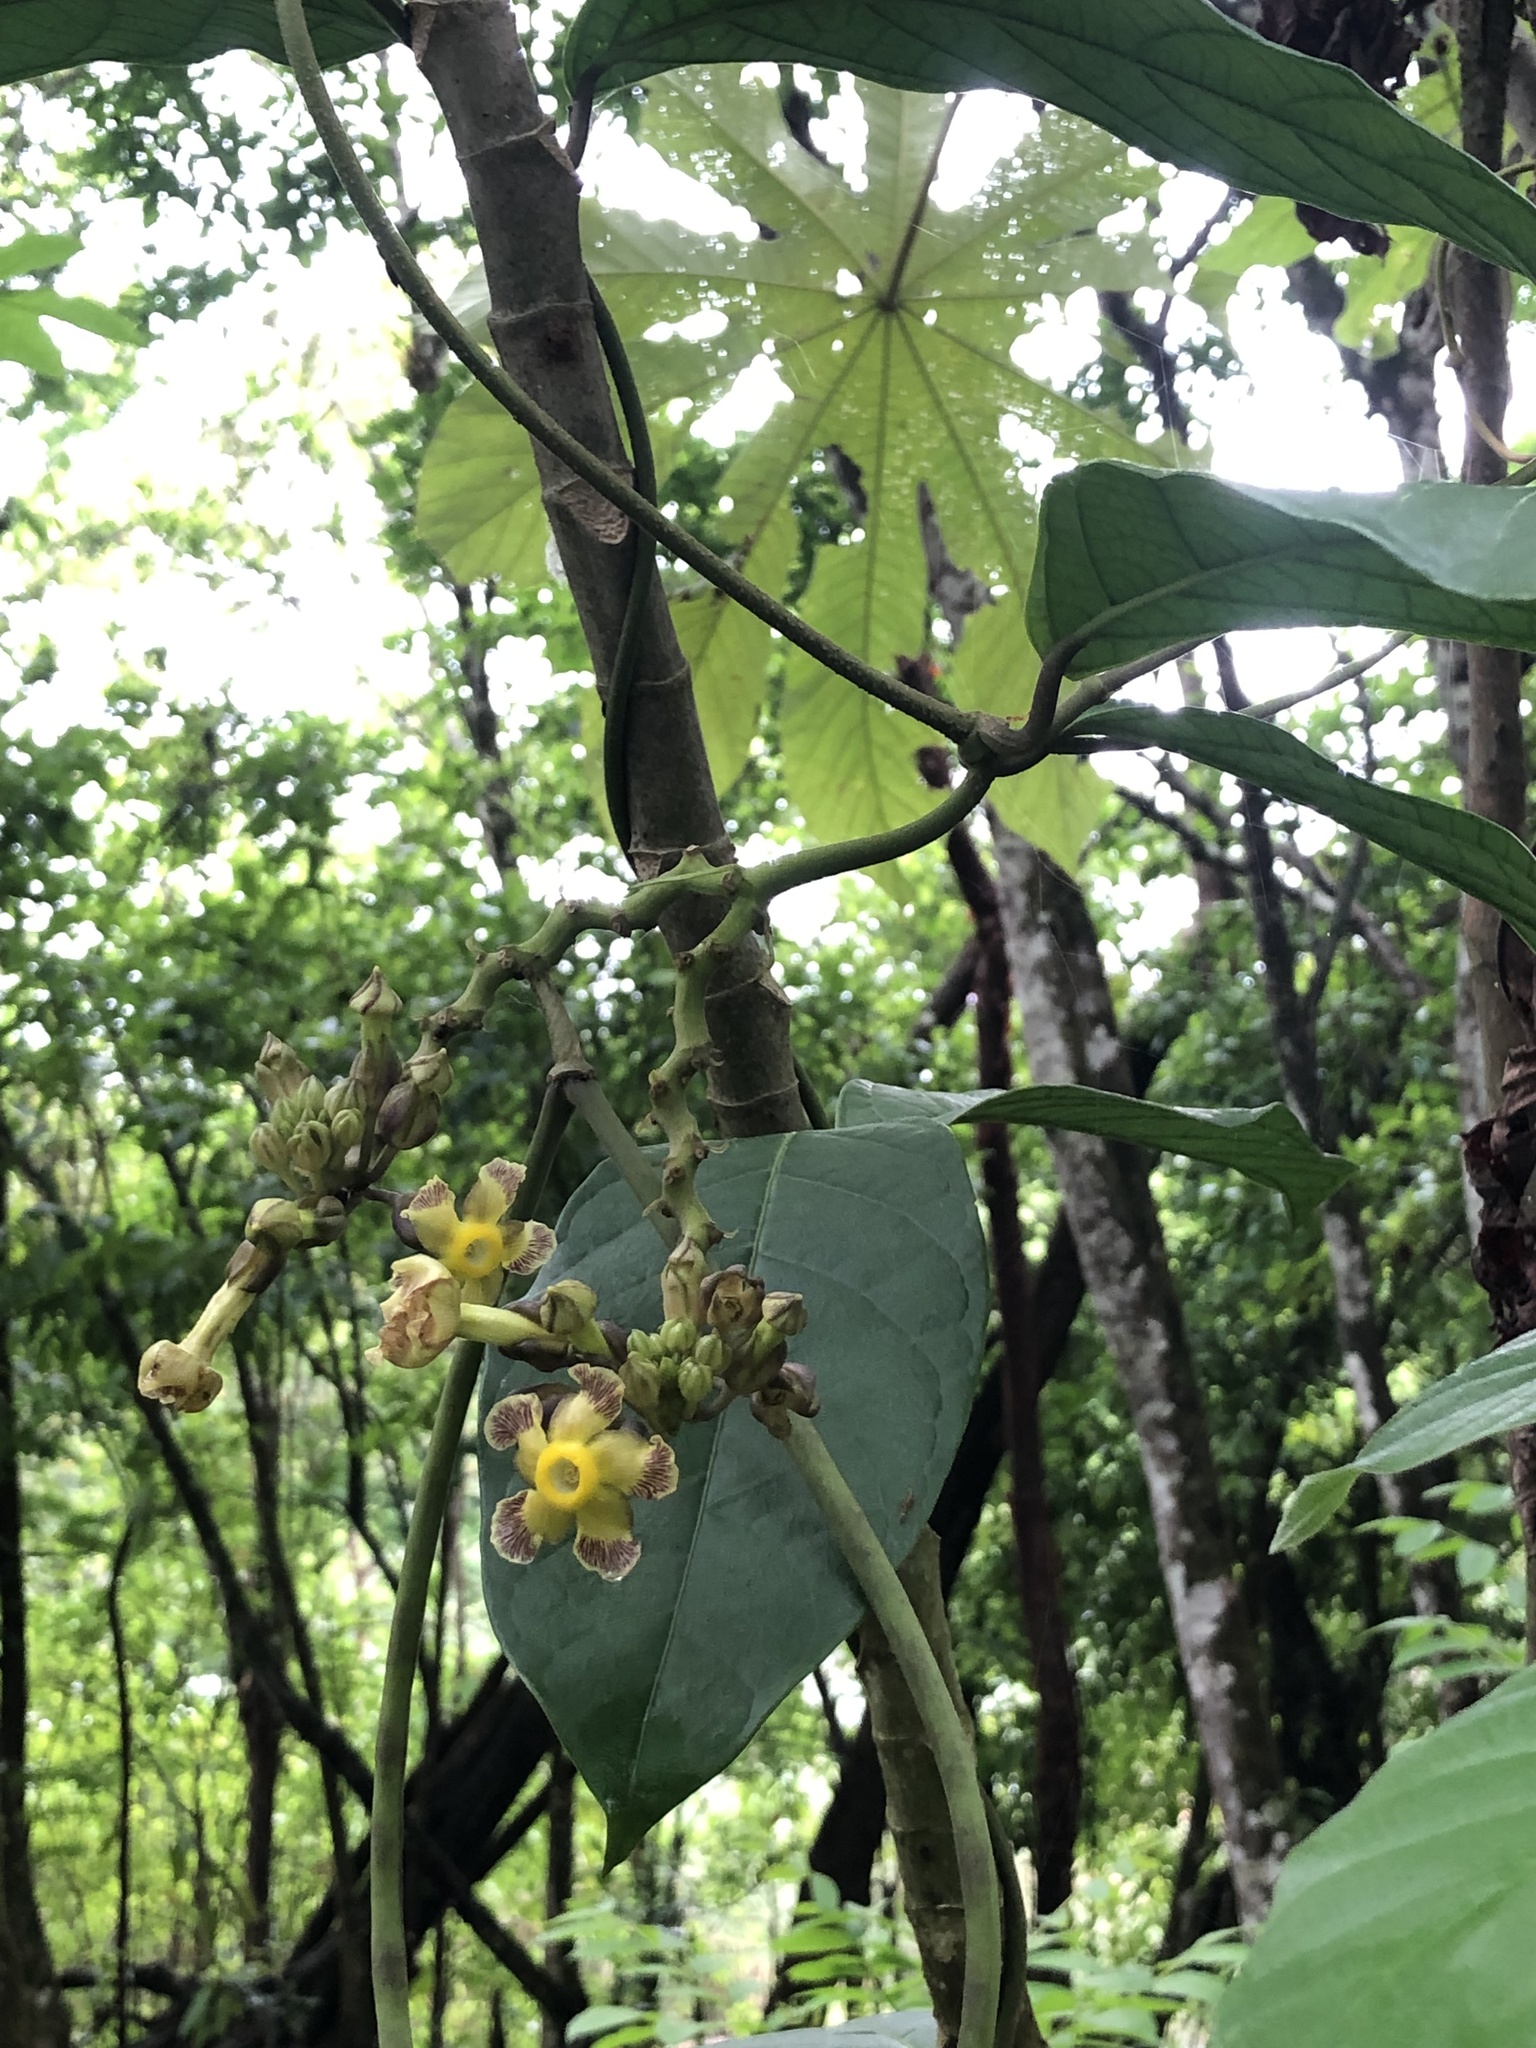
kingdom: Plantae
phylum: Tracheophyta
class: Magnoliopsida
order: Gentianales
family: Apocynaceae
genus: Prestonia
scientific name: Prestonia portobellensis
